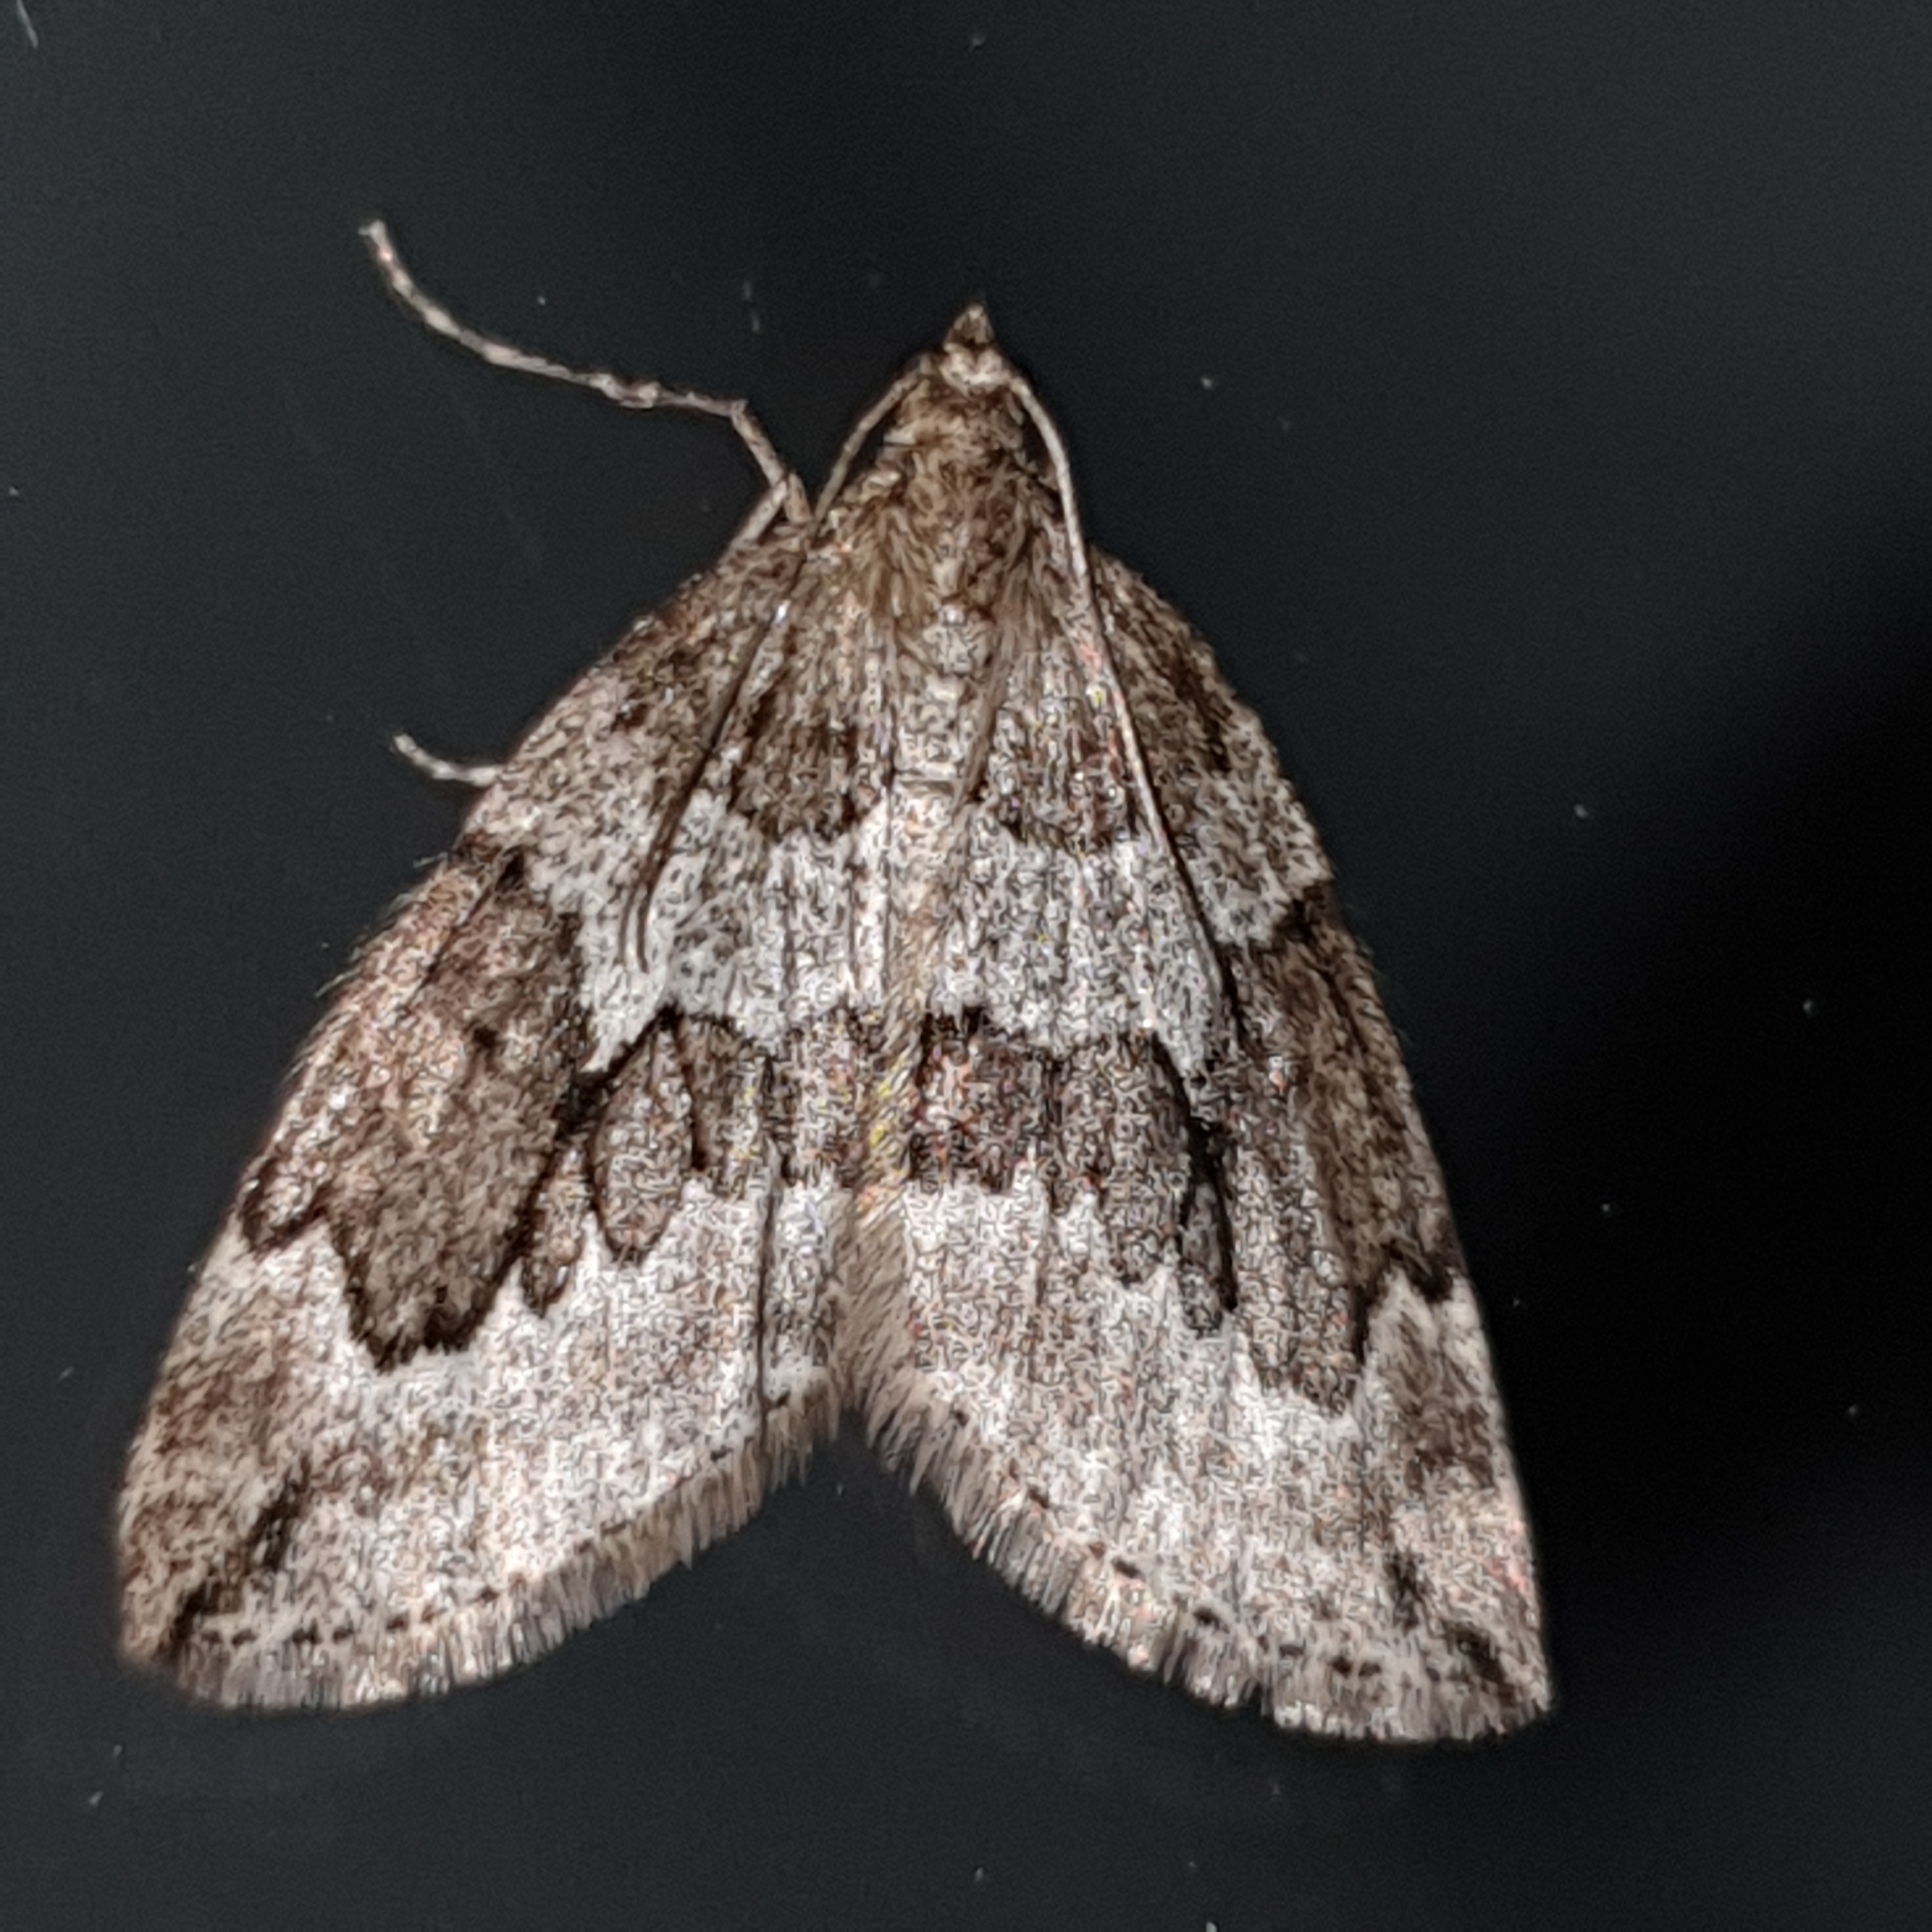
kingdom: Animalia
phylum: Arthropoda
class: Insecta
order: Lepidoptera
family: Geometridae
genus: Thera
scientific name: Thera juniperata
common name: Juniper carpet
